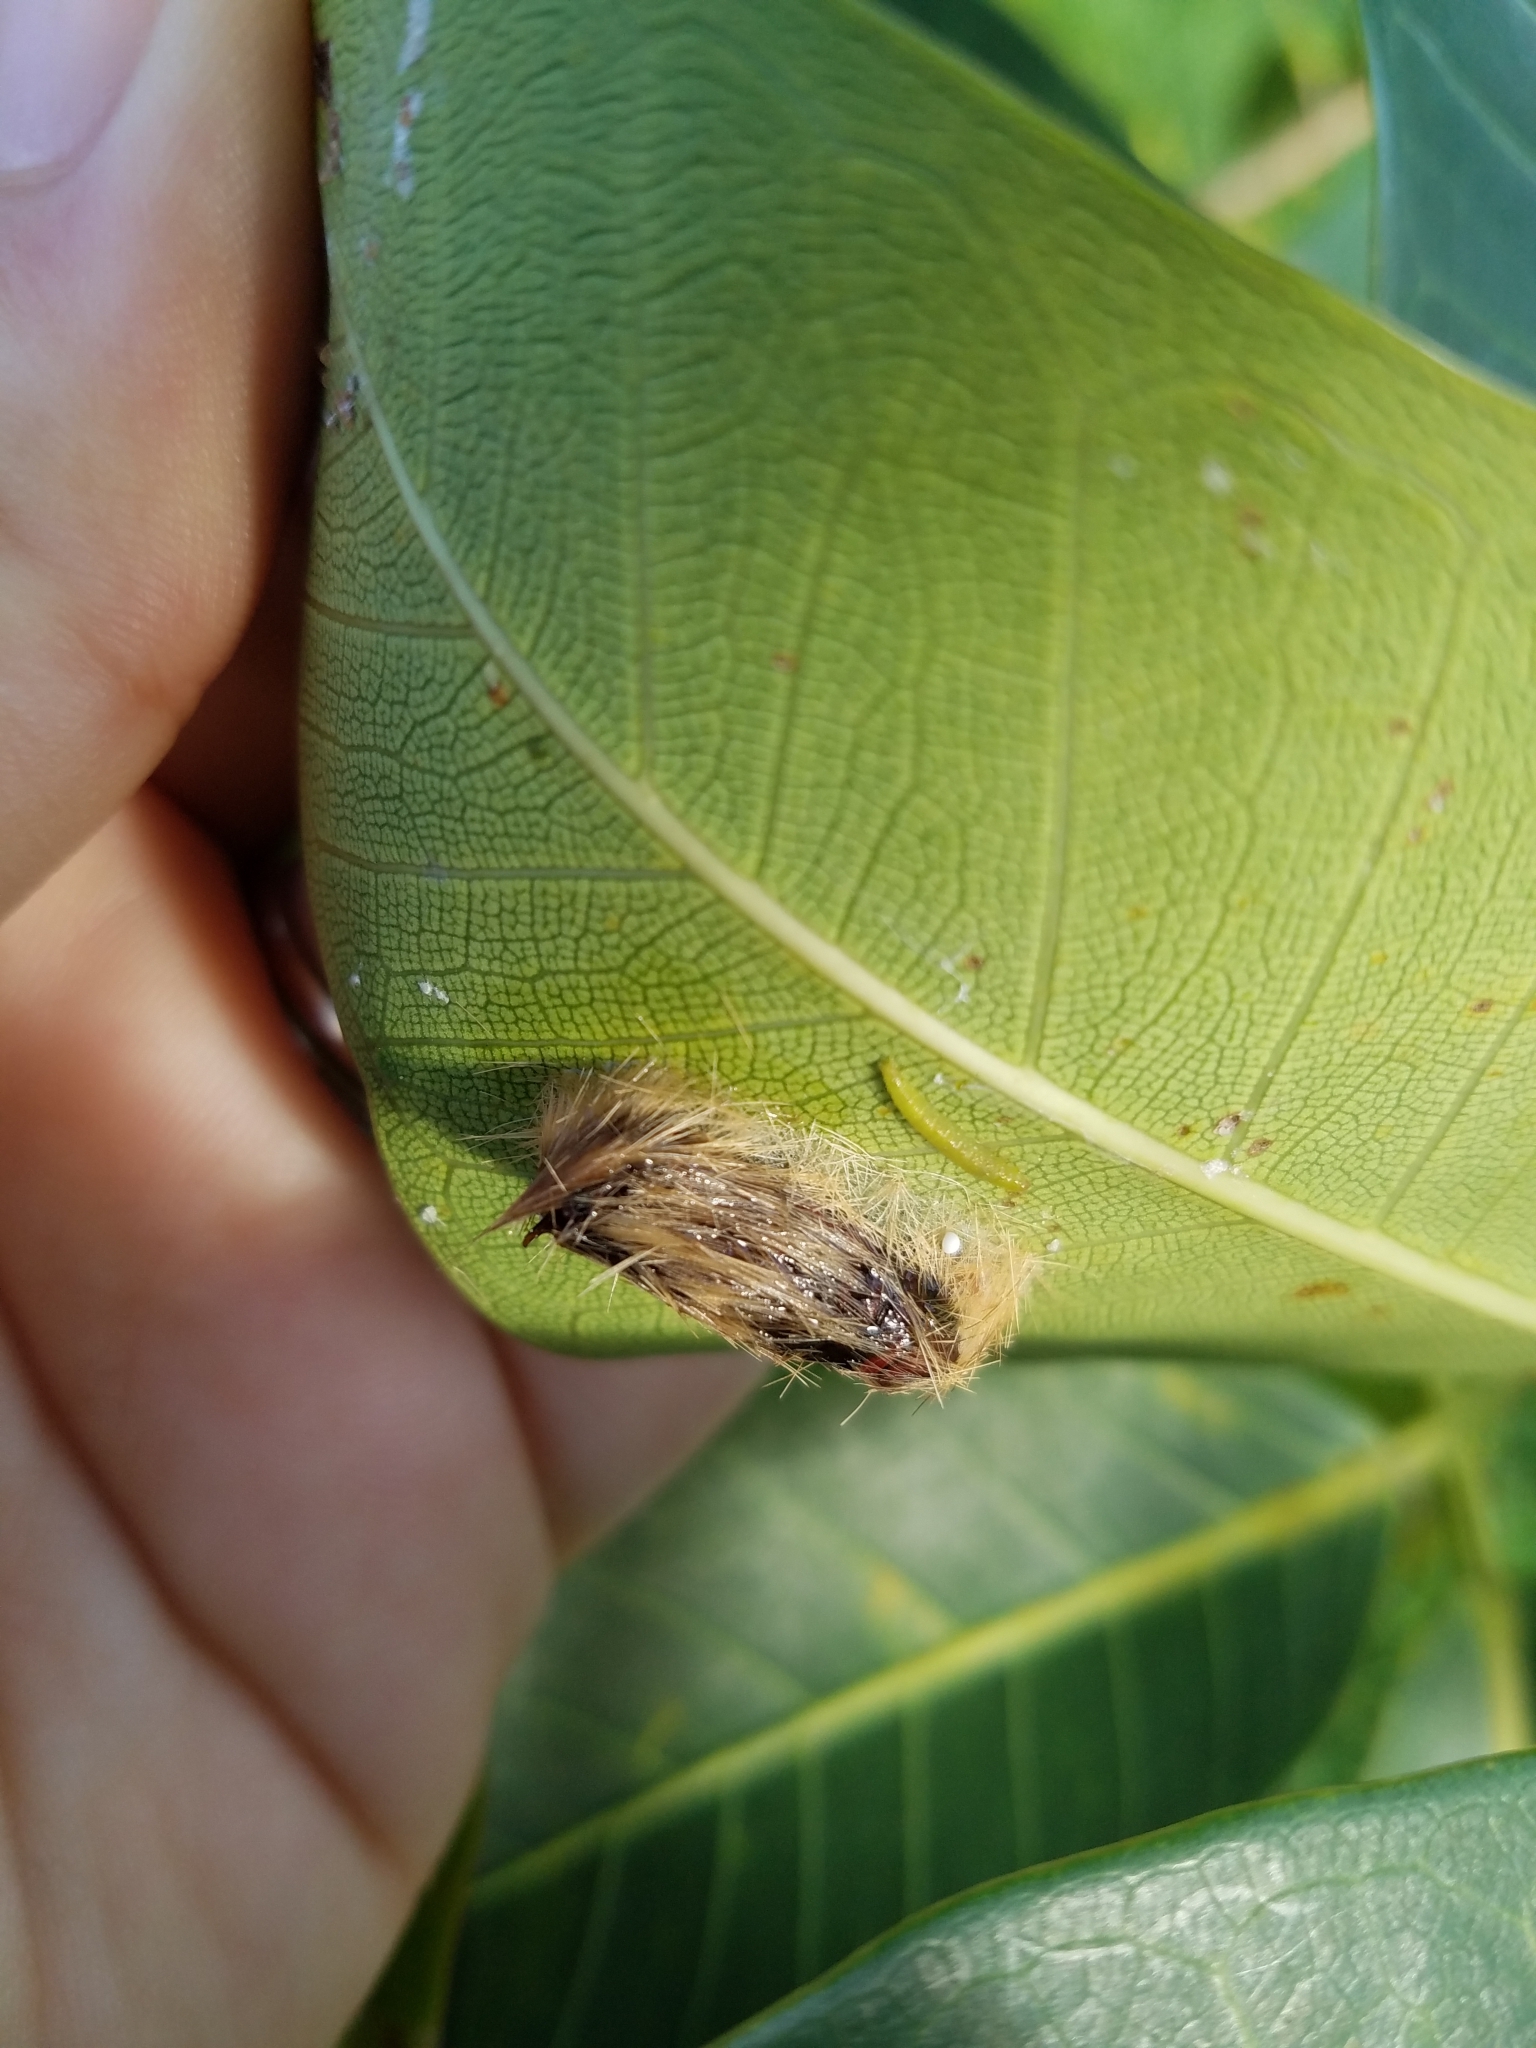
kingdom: Animalia
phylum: Arthropoda
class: Insecta
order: Lepidoptera
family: Erebidae
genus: Lymire
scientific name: Lymire edwardsii
